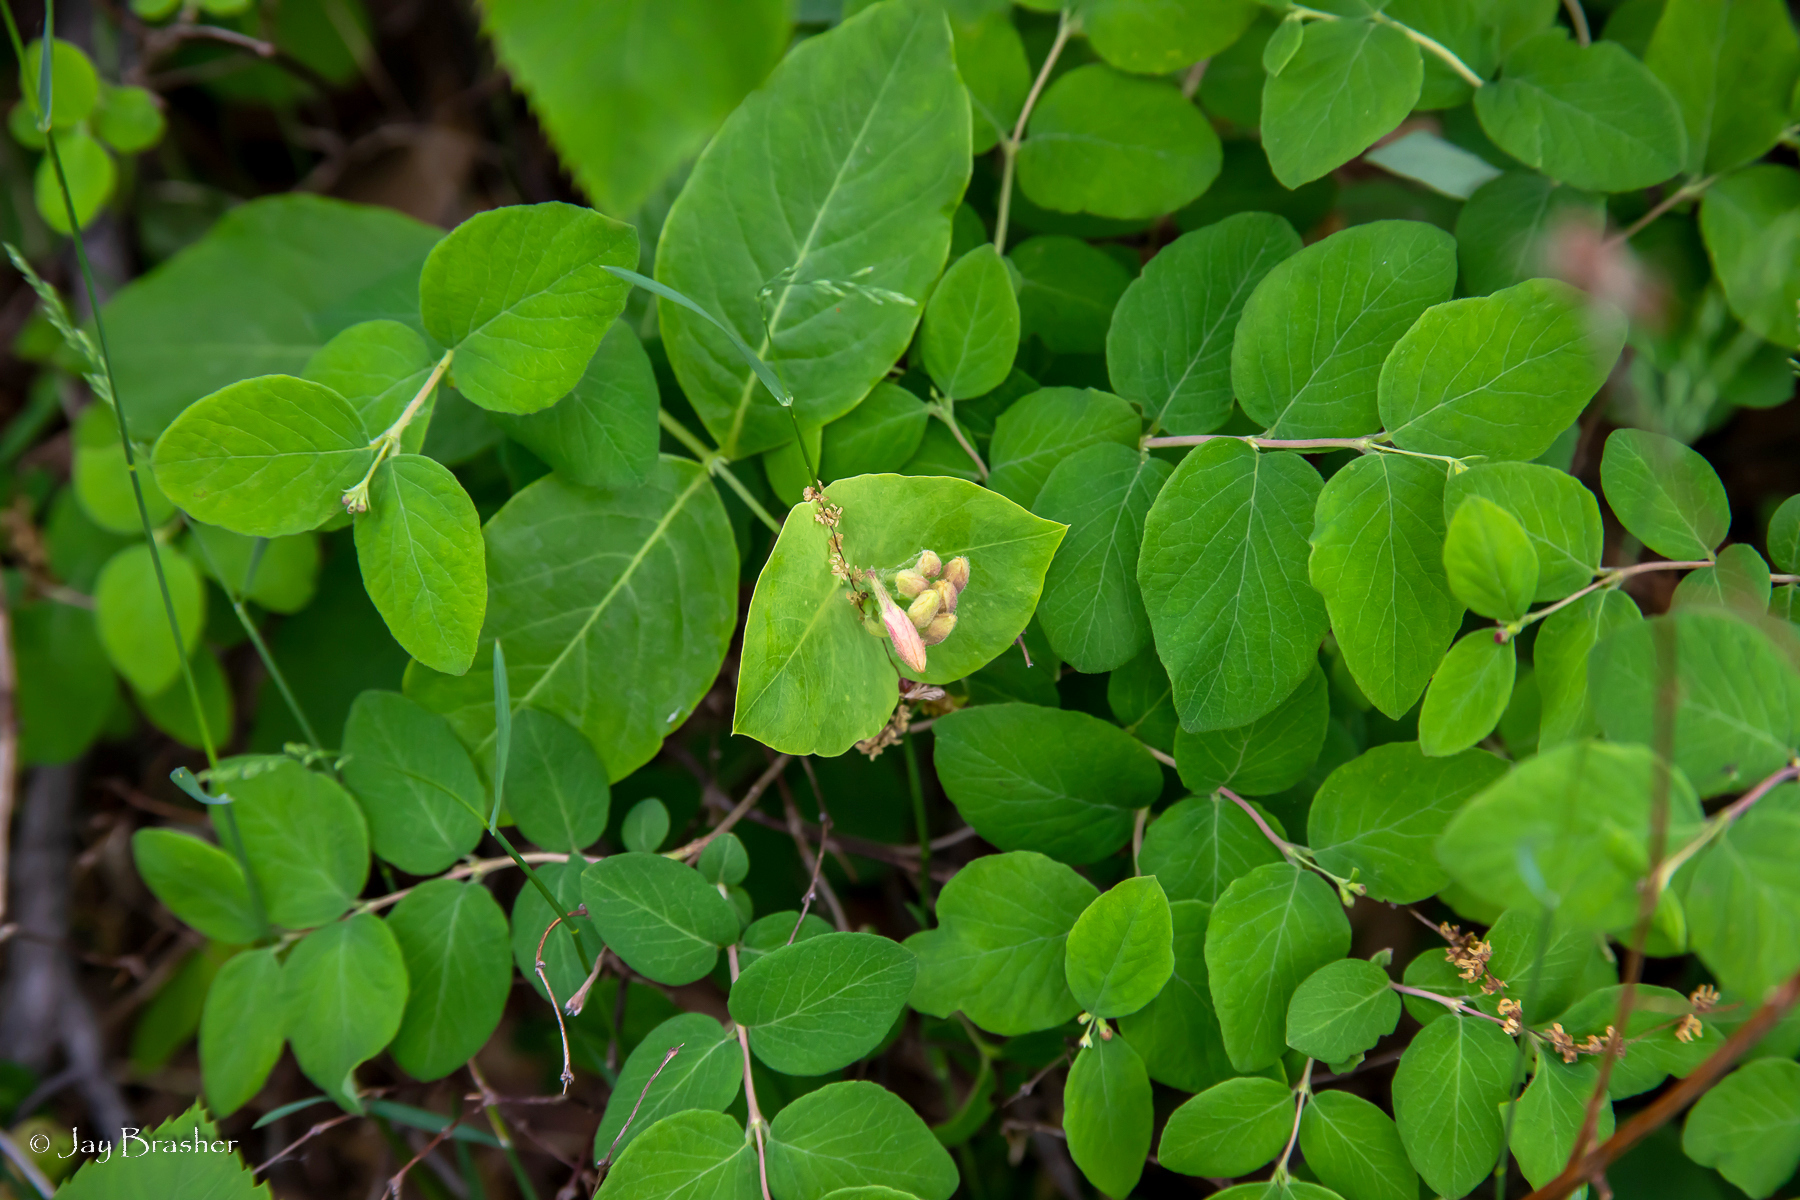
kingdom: Plantae
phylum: Tracheophyta
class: Magnoliopsida
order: Dipsacales
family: Caprifoliaceae
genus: Lonicera
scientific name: Lonicera dioica
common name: Limber honeysuckle
